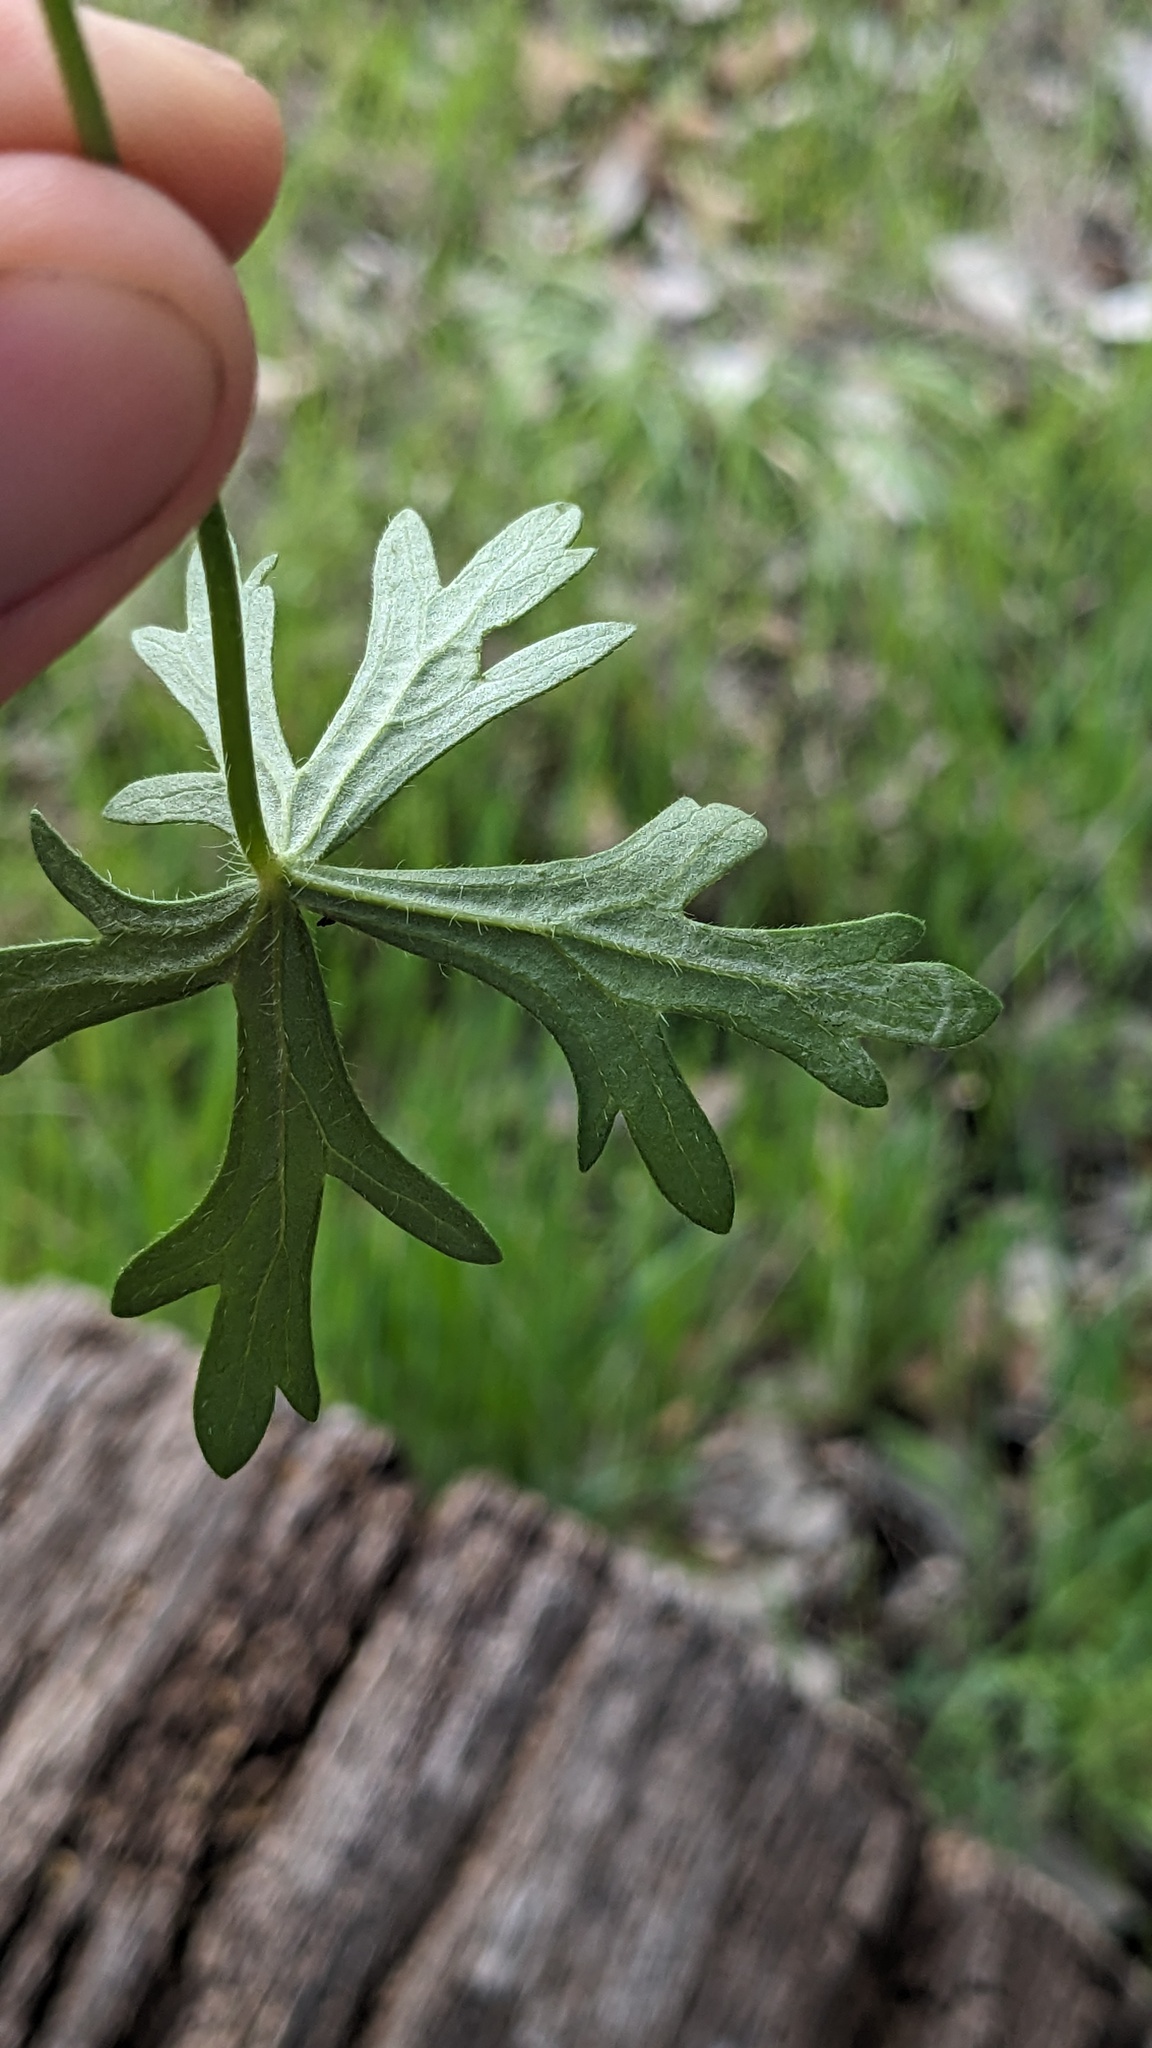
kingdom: Animalia
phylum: Arthropoda
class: Insecta
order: Diptera
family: Agromyzidae
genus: Calycomyza
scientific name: Calycomyza malvae
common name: Mallow leaf miner
